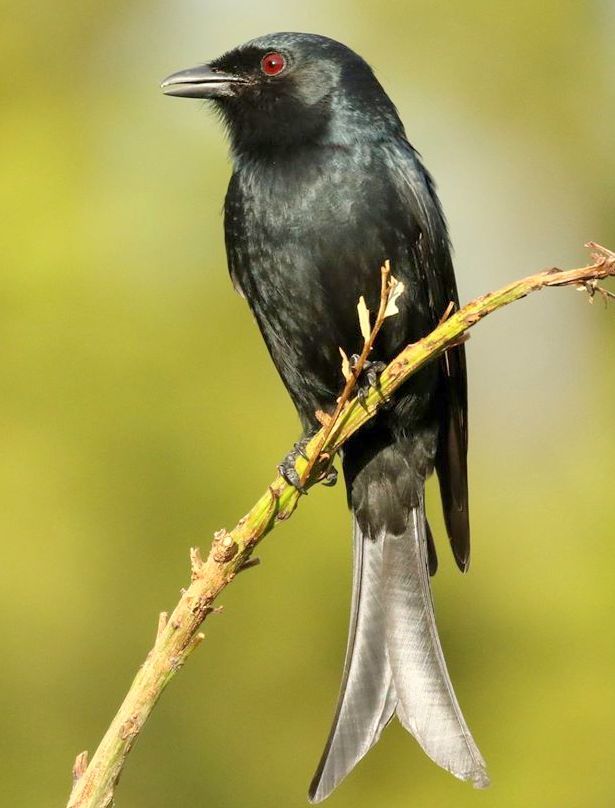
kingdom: Animalia
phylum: Chordata
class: Aves
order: Passeriformes
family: Dicruridae
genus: Dicrurus
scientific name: Dicrurus adsimilis
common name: Fork-tailed drongo
